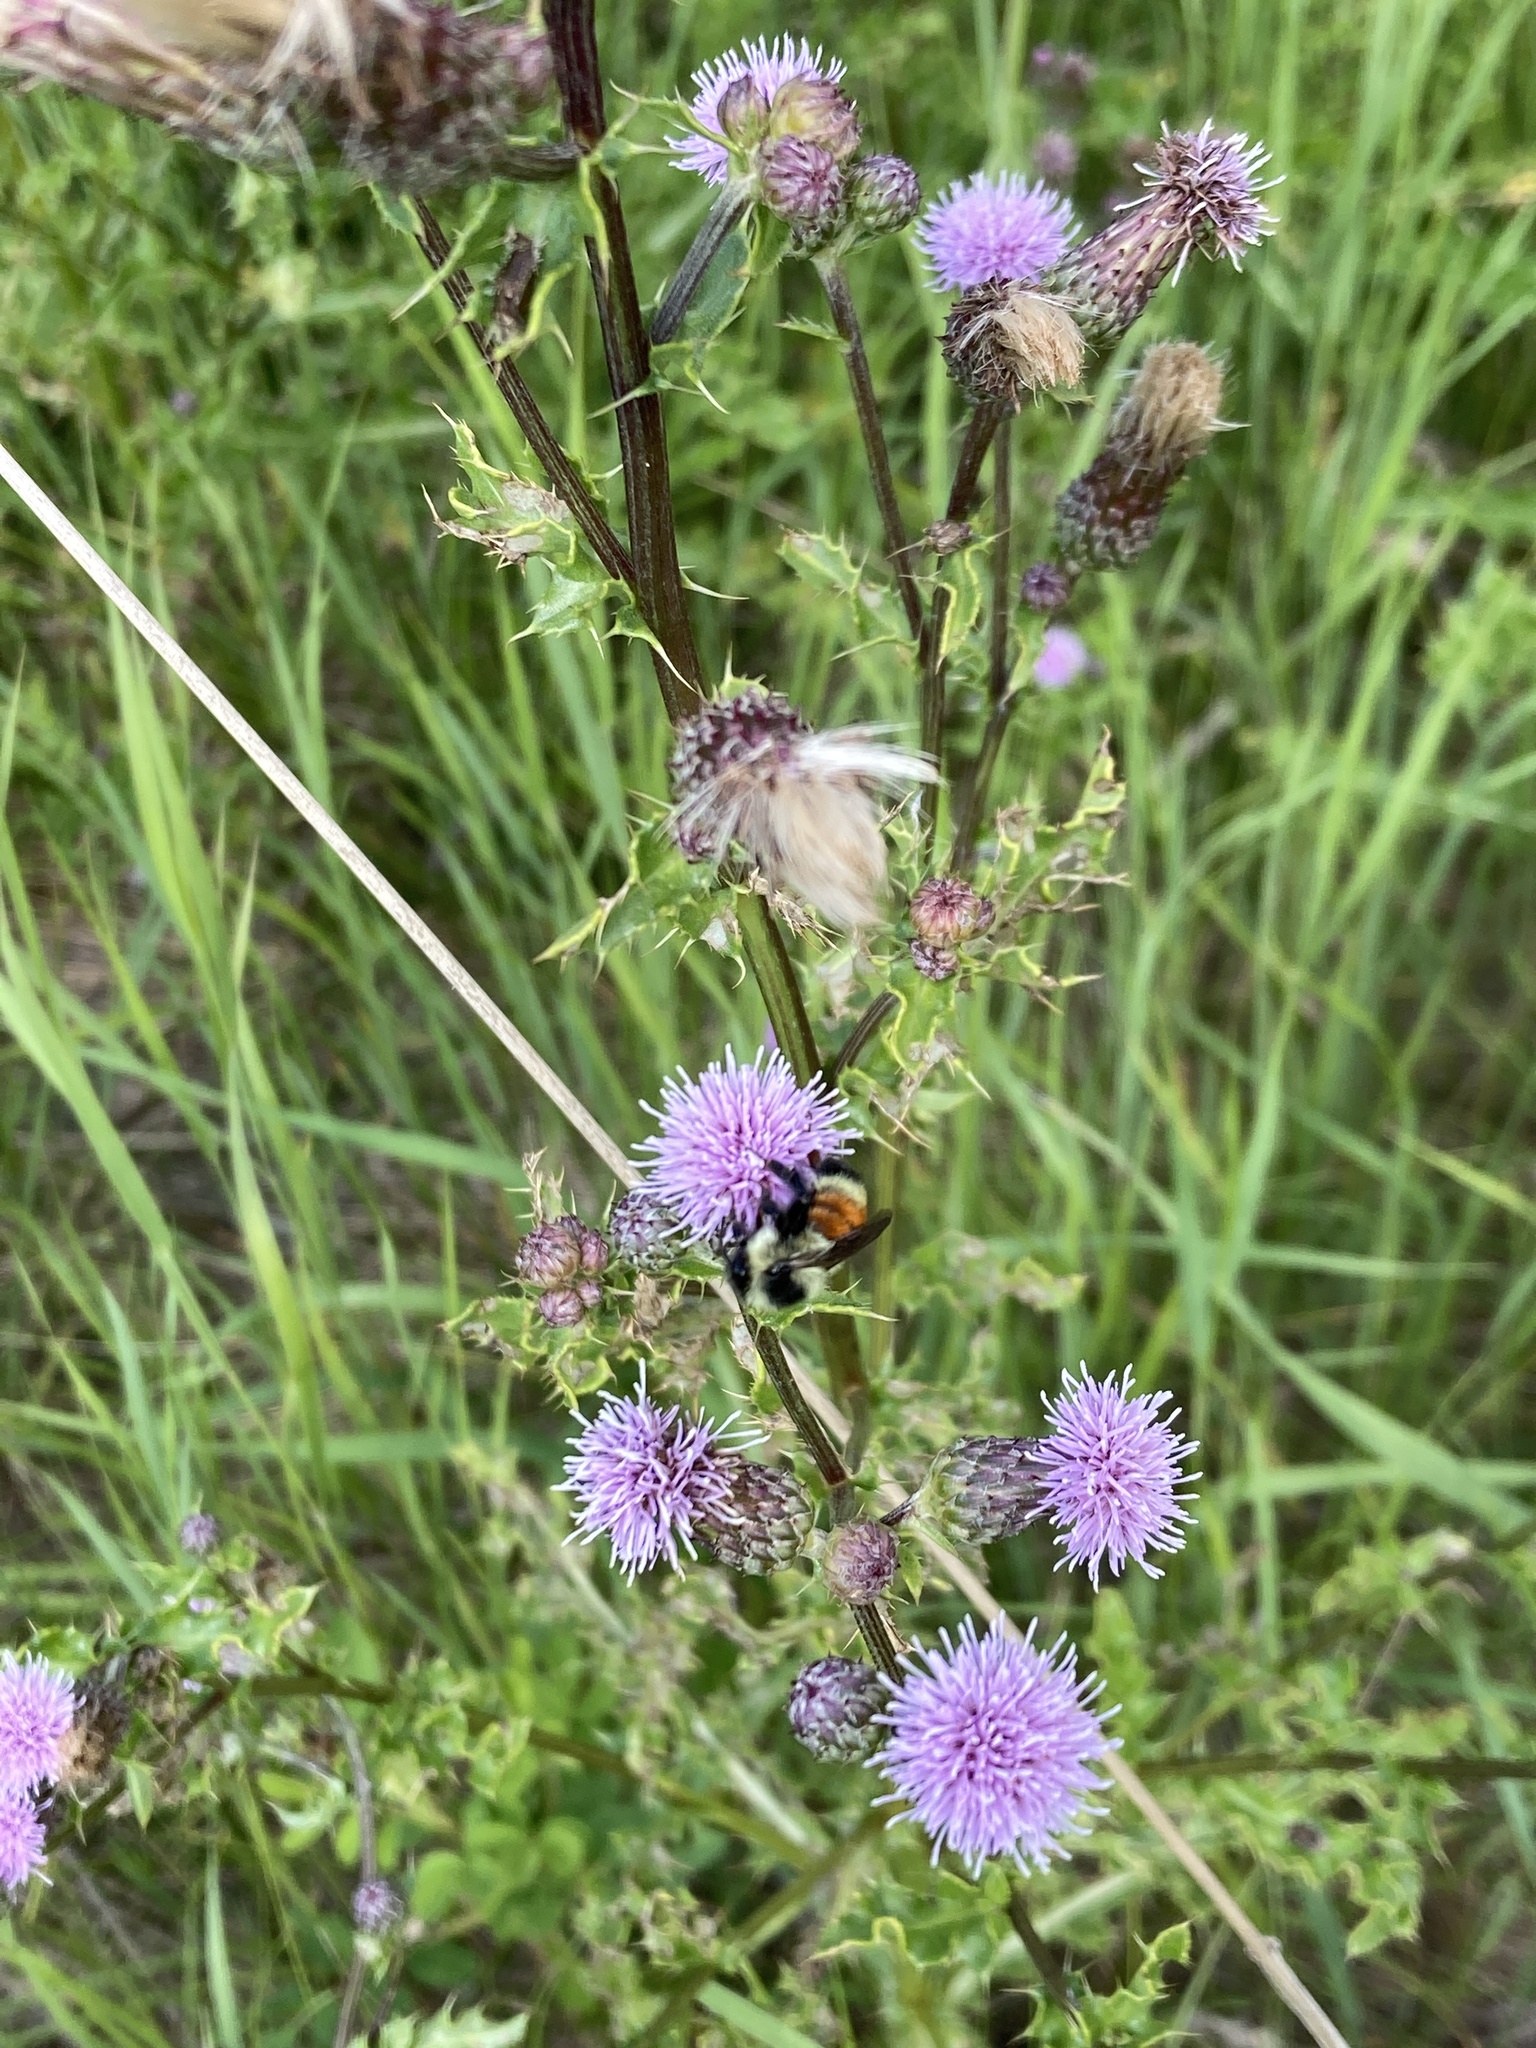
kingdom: Animalia
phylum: Arthropoda
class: Insecta
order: Hymenoptera
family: Apidae
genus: Bombus
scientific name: Bombus ternarius
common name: Tri-colored bumble bee
